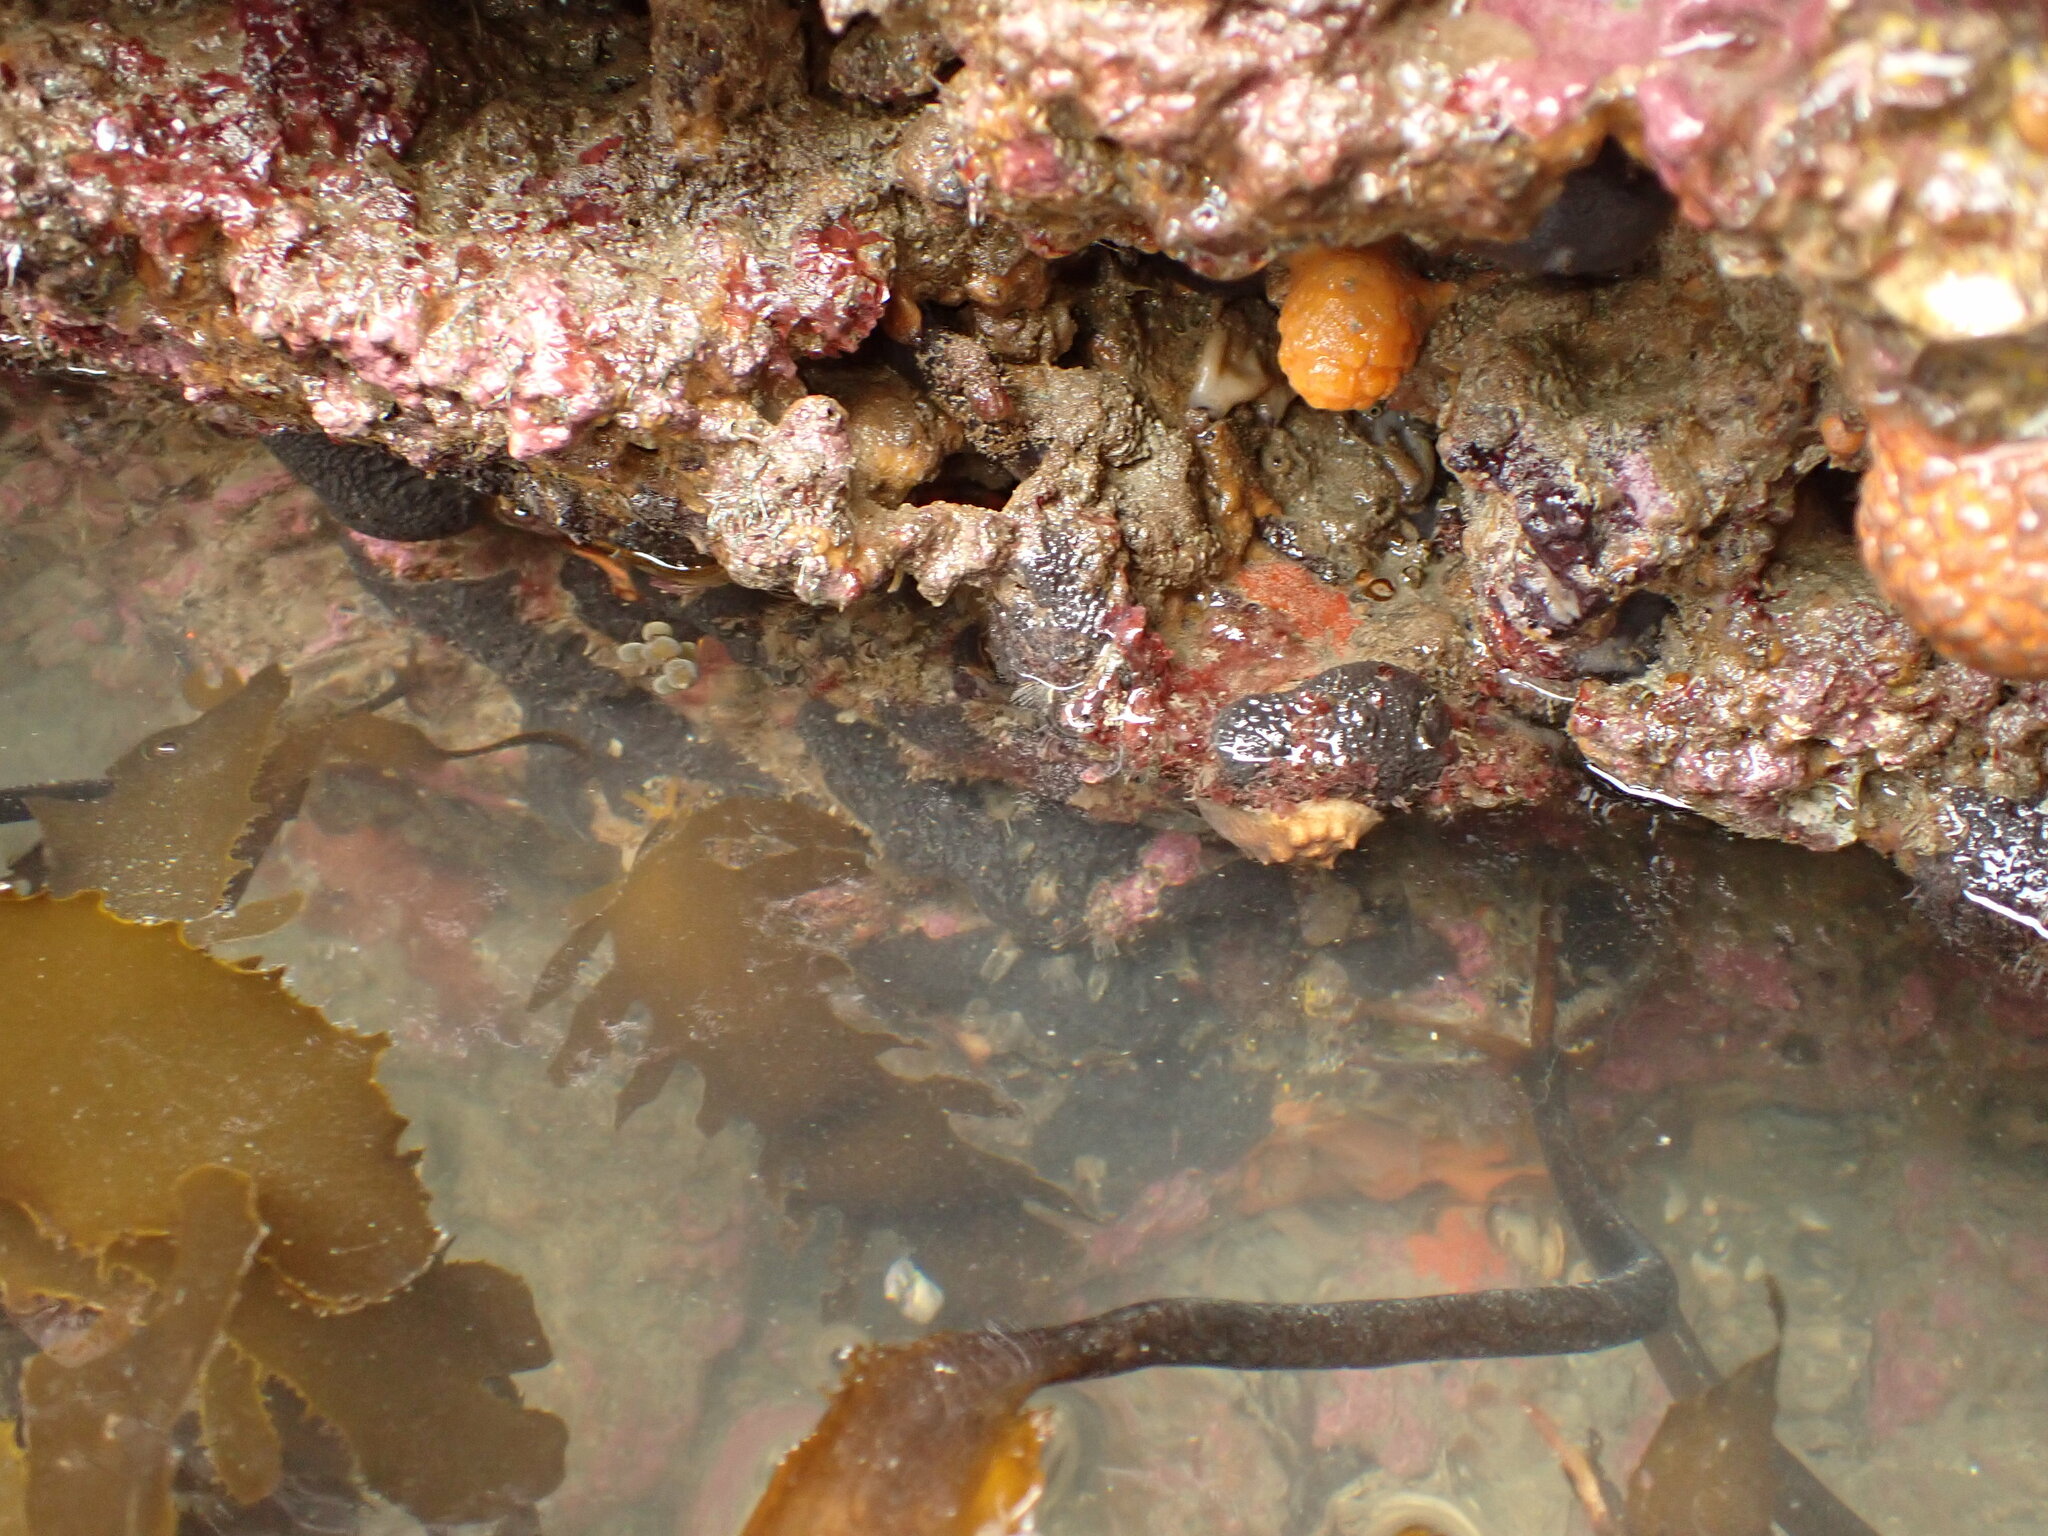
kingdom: Animalia
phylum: Mollusca
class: Polyplacophora
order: Chitonida
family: Acanthochitonidae
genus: Cryptoconchus
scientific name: Cryptoconchus porosus
